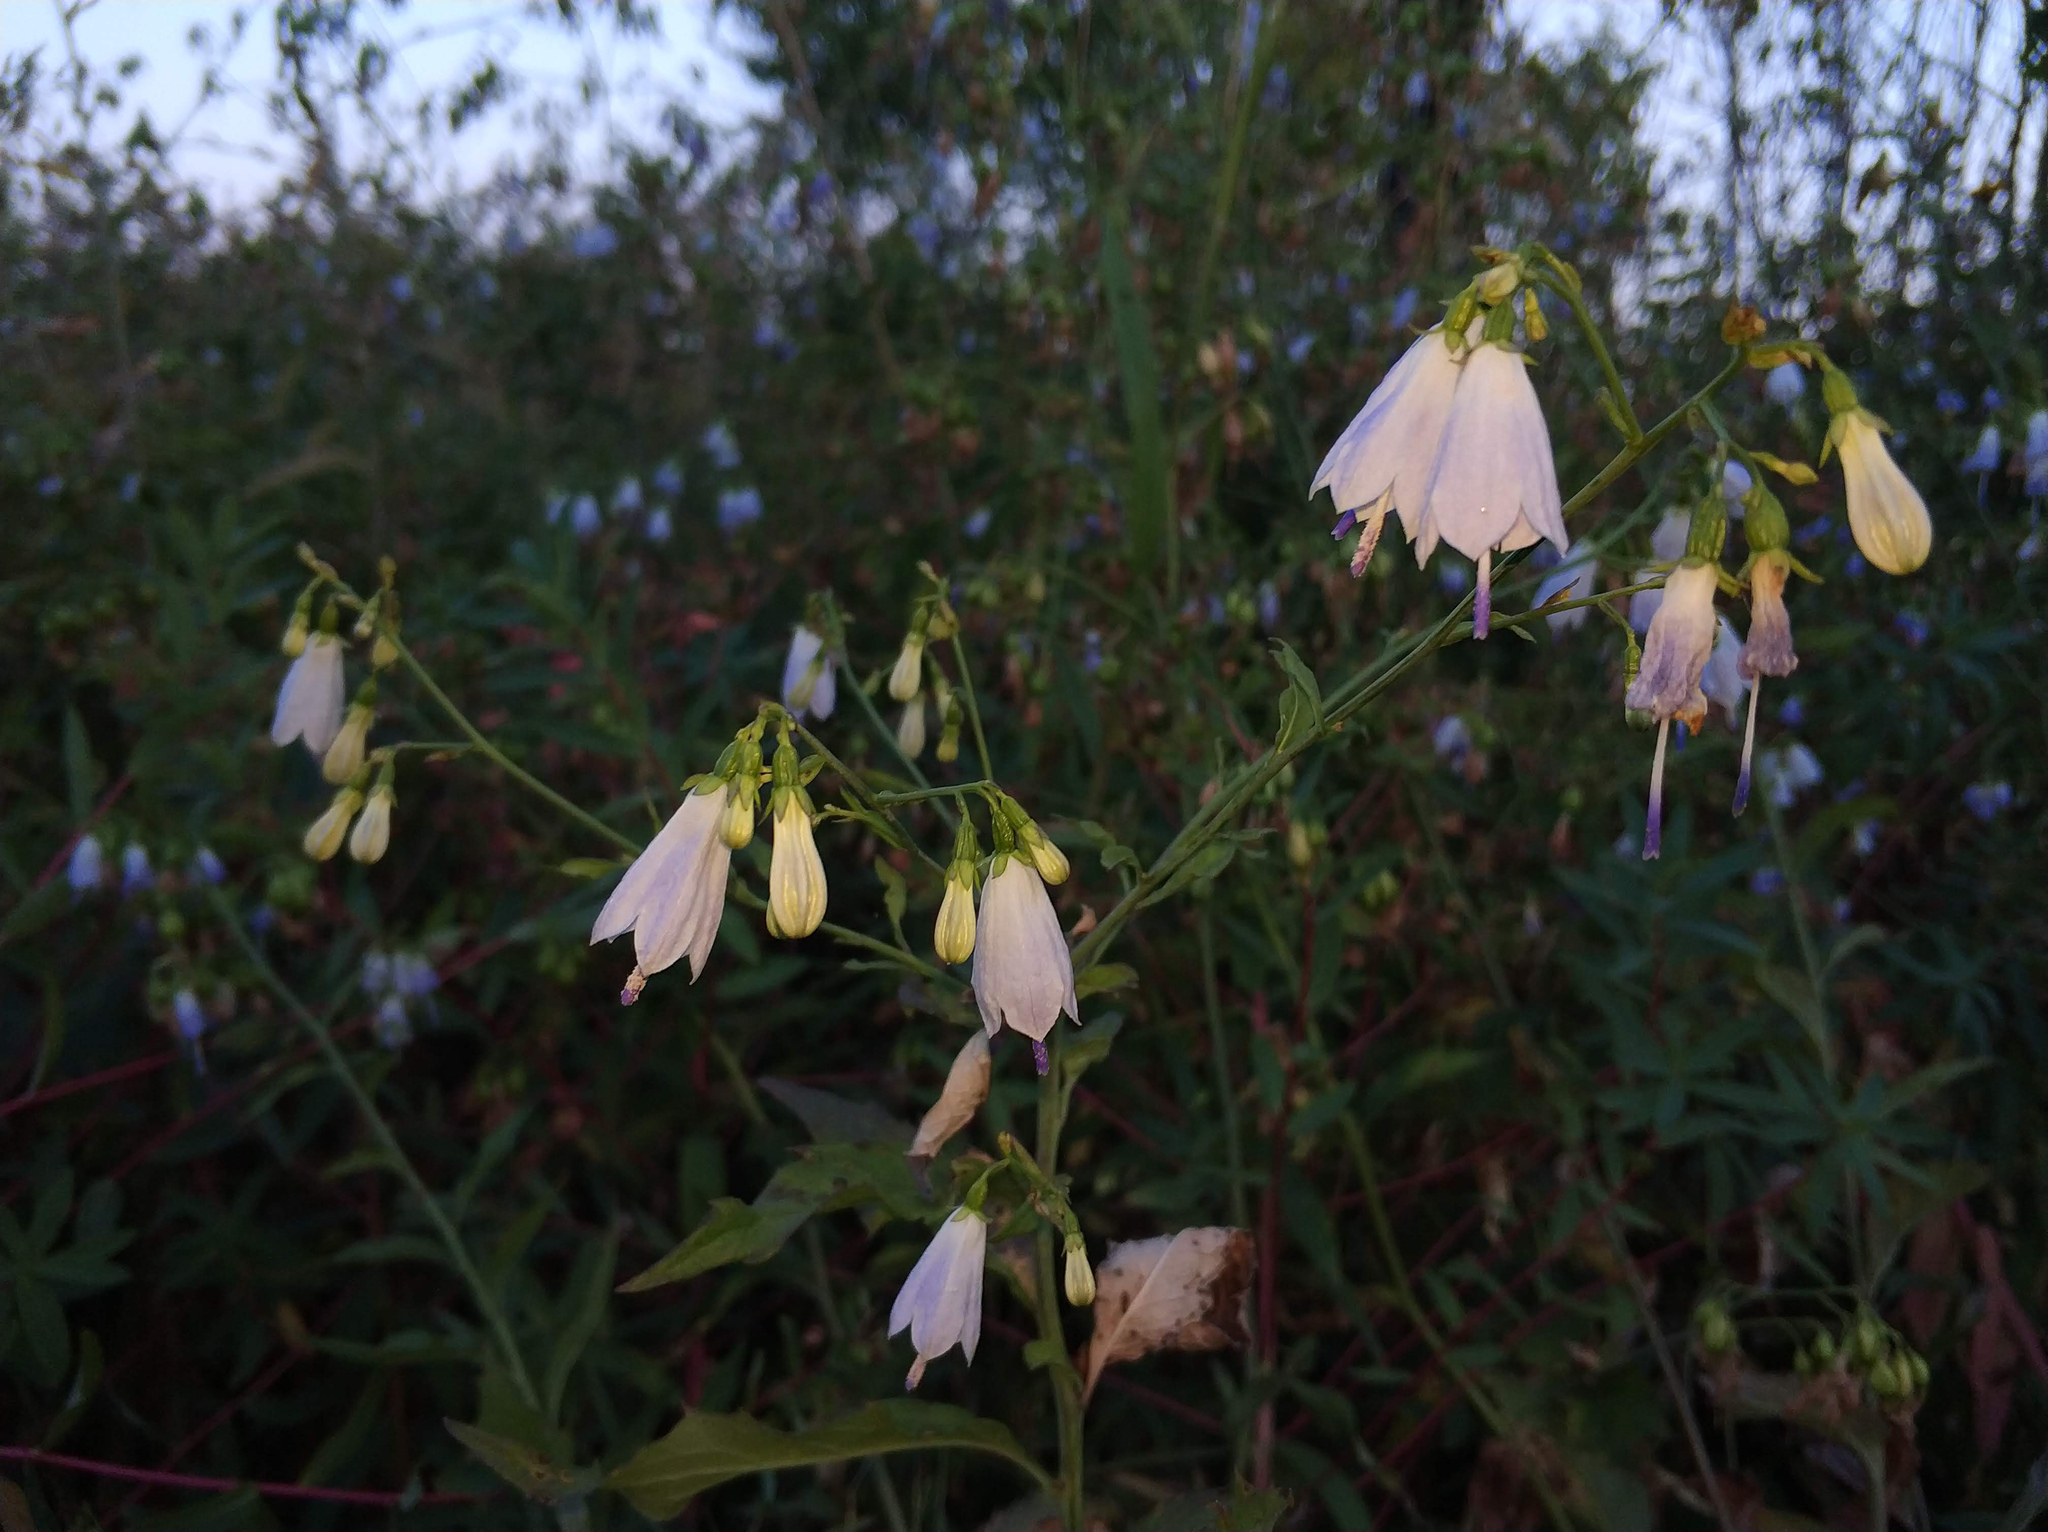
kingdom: Plantae
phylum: Tracheophyta
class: Magnoliopsida
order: Asterales
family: Campanulaceae
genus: Adenophora
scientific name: Adenophora liliifolia
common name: Lilyleaf ladybells
